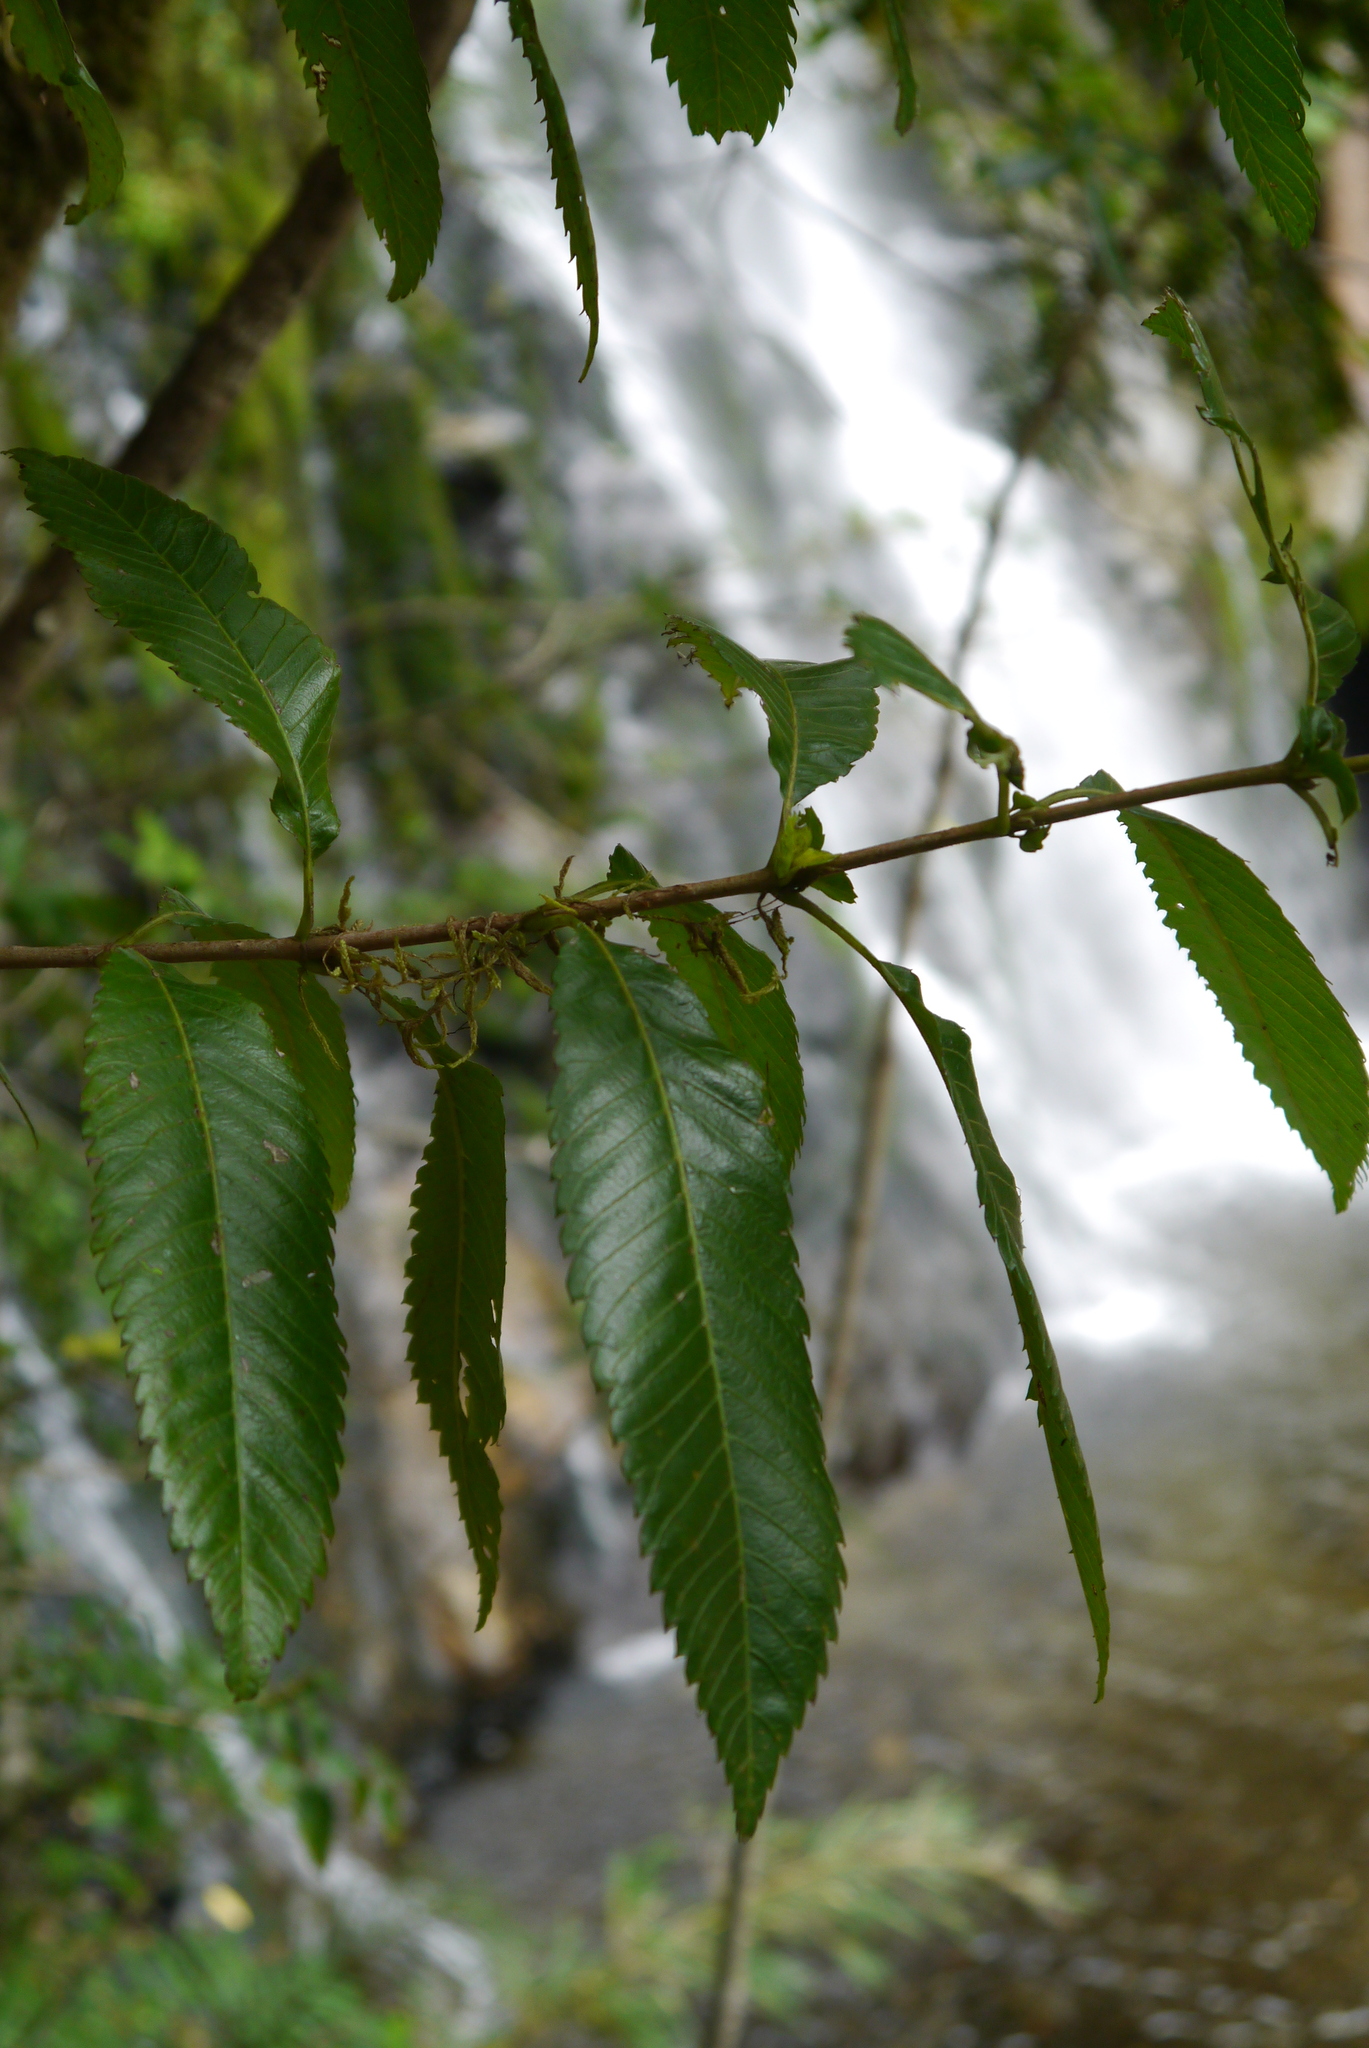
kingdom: Plantae
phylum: Tracheophyta
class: Magnoliopsida
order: Oxalidales
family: Cunoniaceae
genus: Caldcluvia
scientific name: Caldcluvia paniculata
